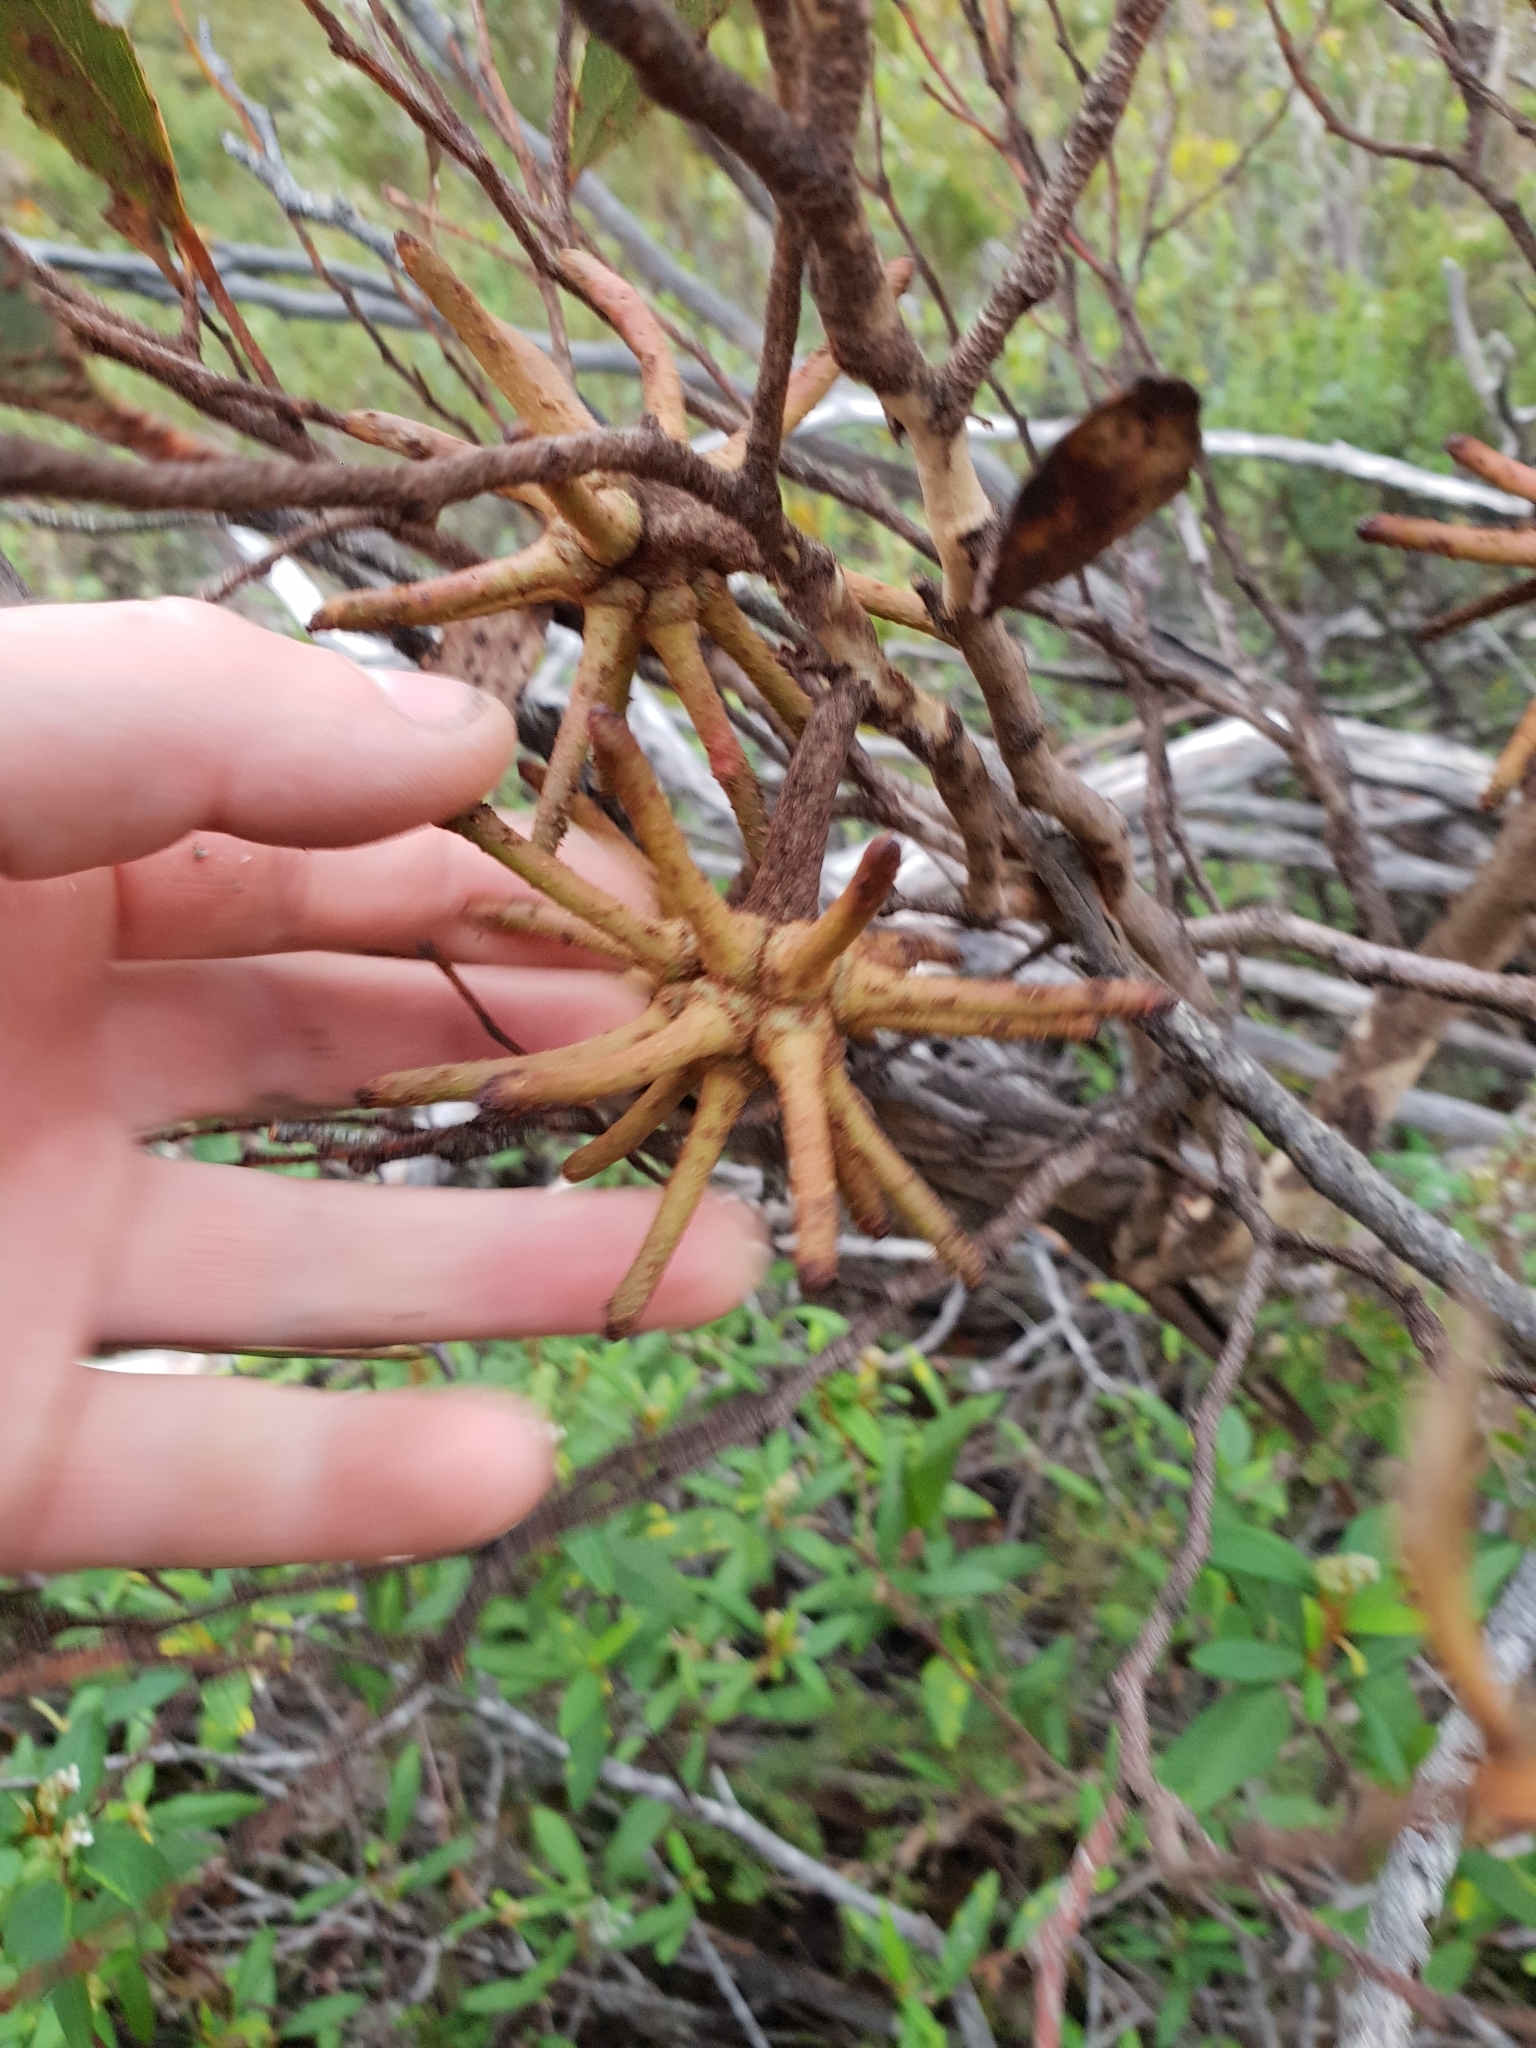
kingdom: Plantae
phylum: Tracheophyta
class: Magnoliopsida
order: Myrtales
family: Myrtaceae
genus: Eucalyptus
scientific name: Eucalyptus conferruminata
